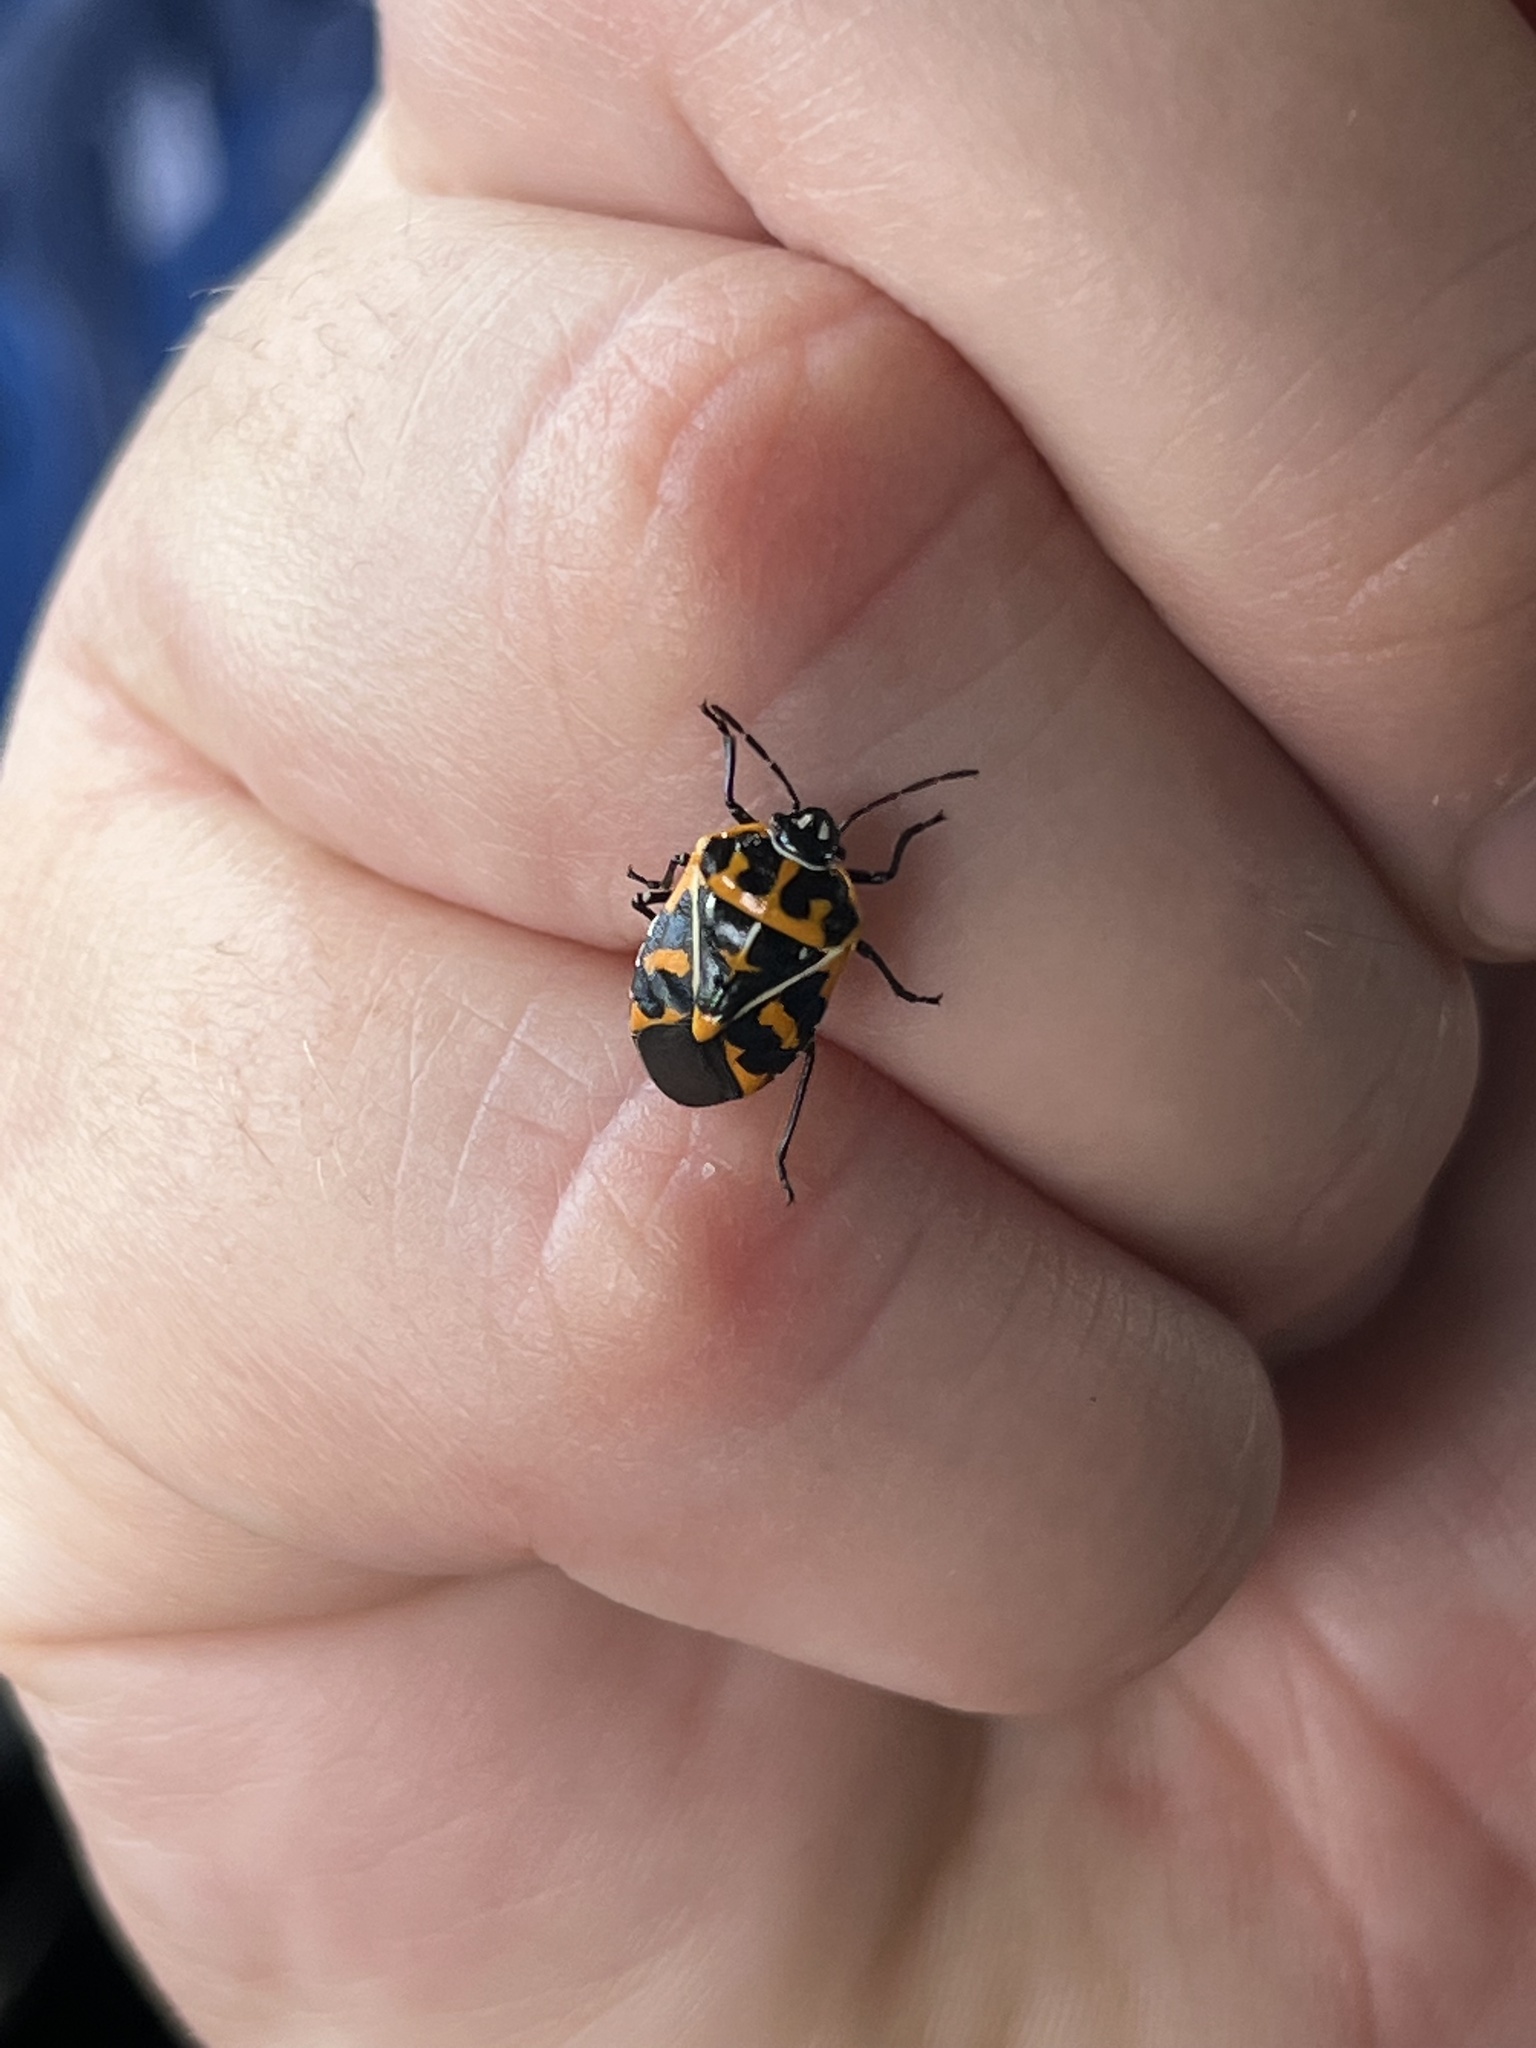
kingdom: Animalia
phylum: Arthropoda
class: Insecta
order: Hemiptera
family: Pentatomidae
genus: Murgantia
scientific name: Murgantia histrionica
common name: Harlequin bug
